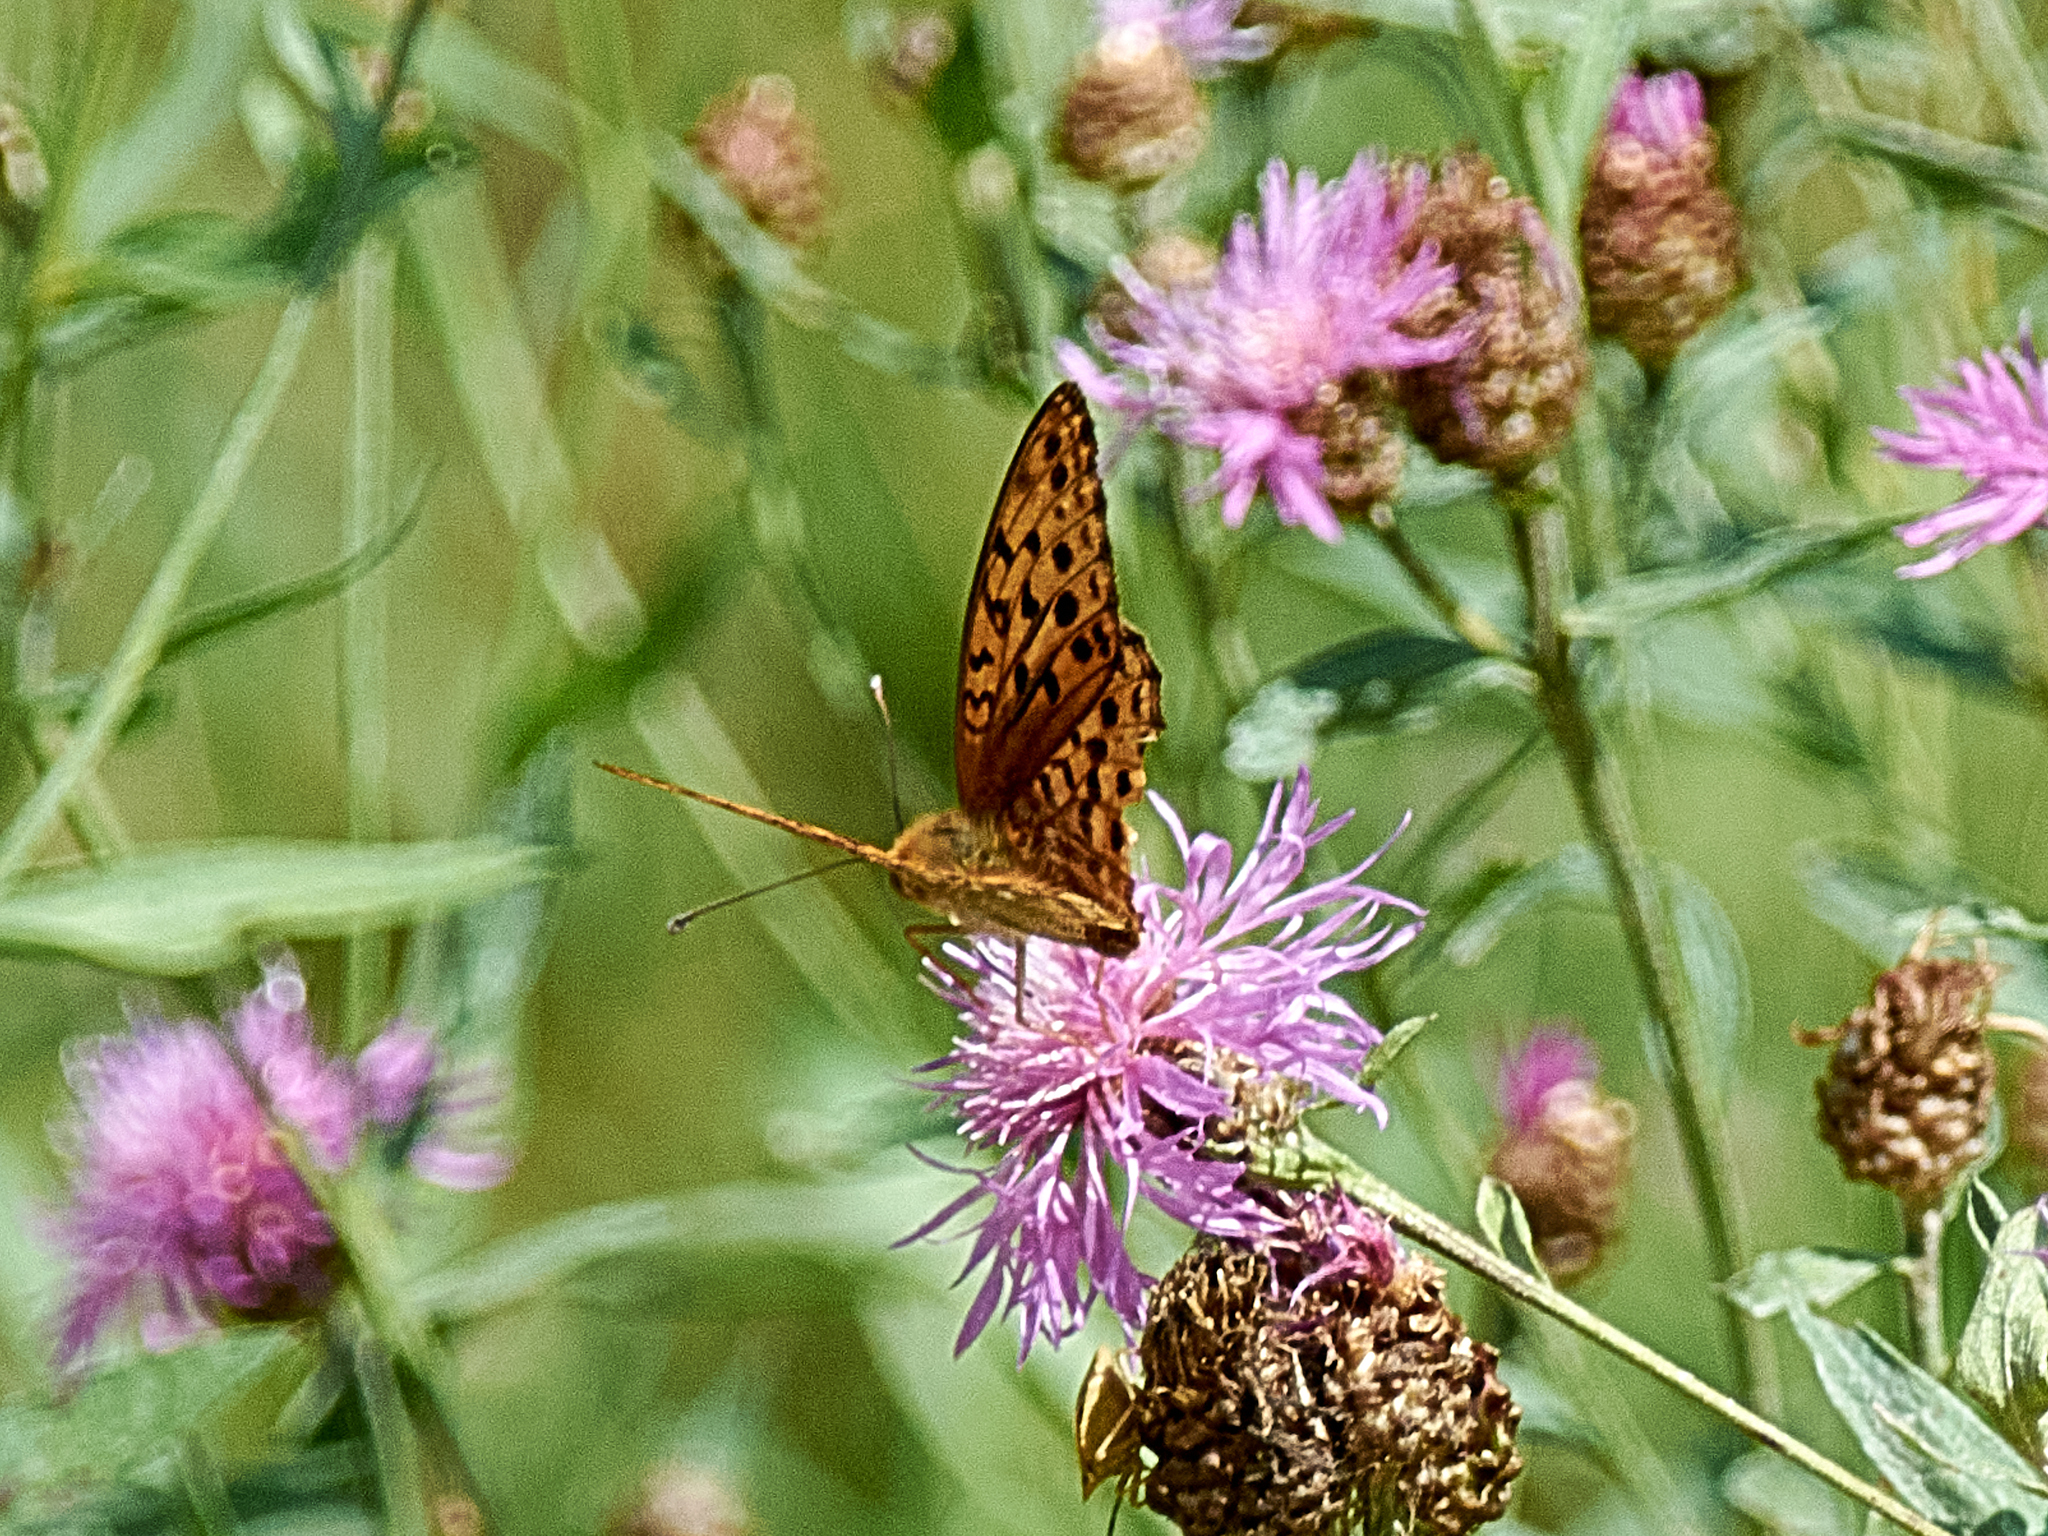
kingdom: Animalia
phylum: Arthropoda
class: Insecta
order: Lepidoptera
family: Nymphalidae
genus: Fabriciana
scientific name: Fabriciana adippe
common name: High brown fritillary
